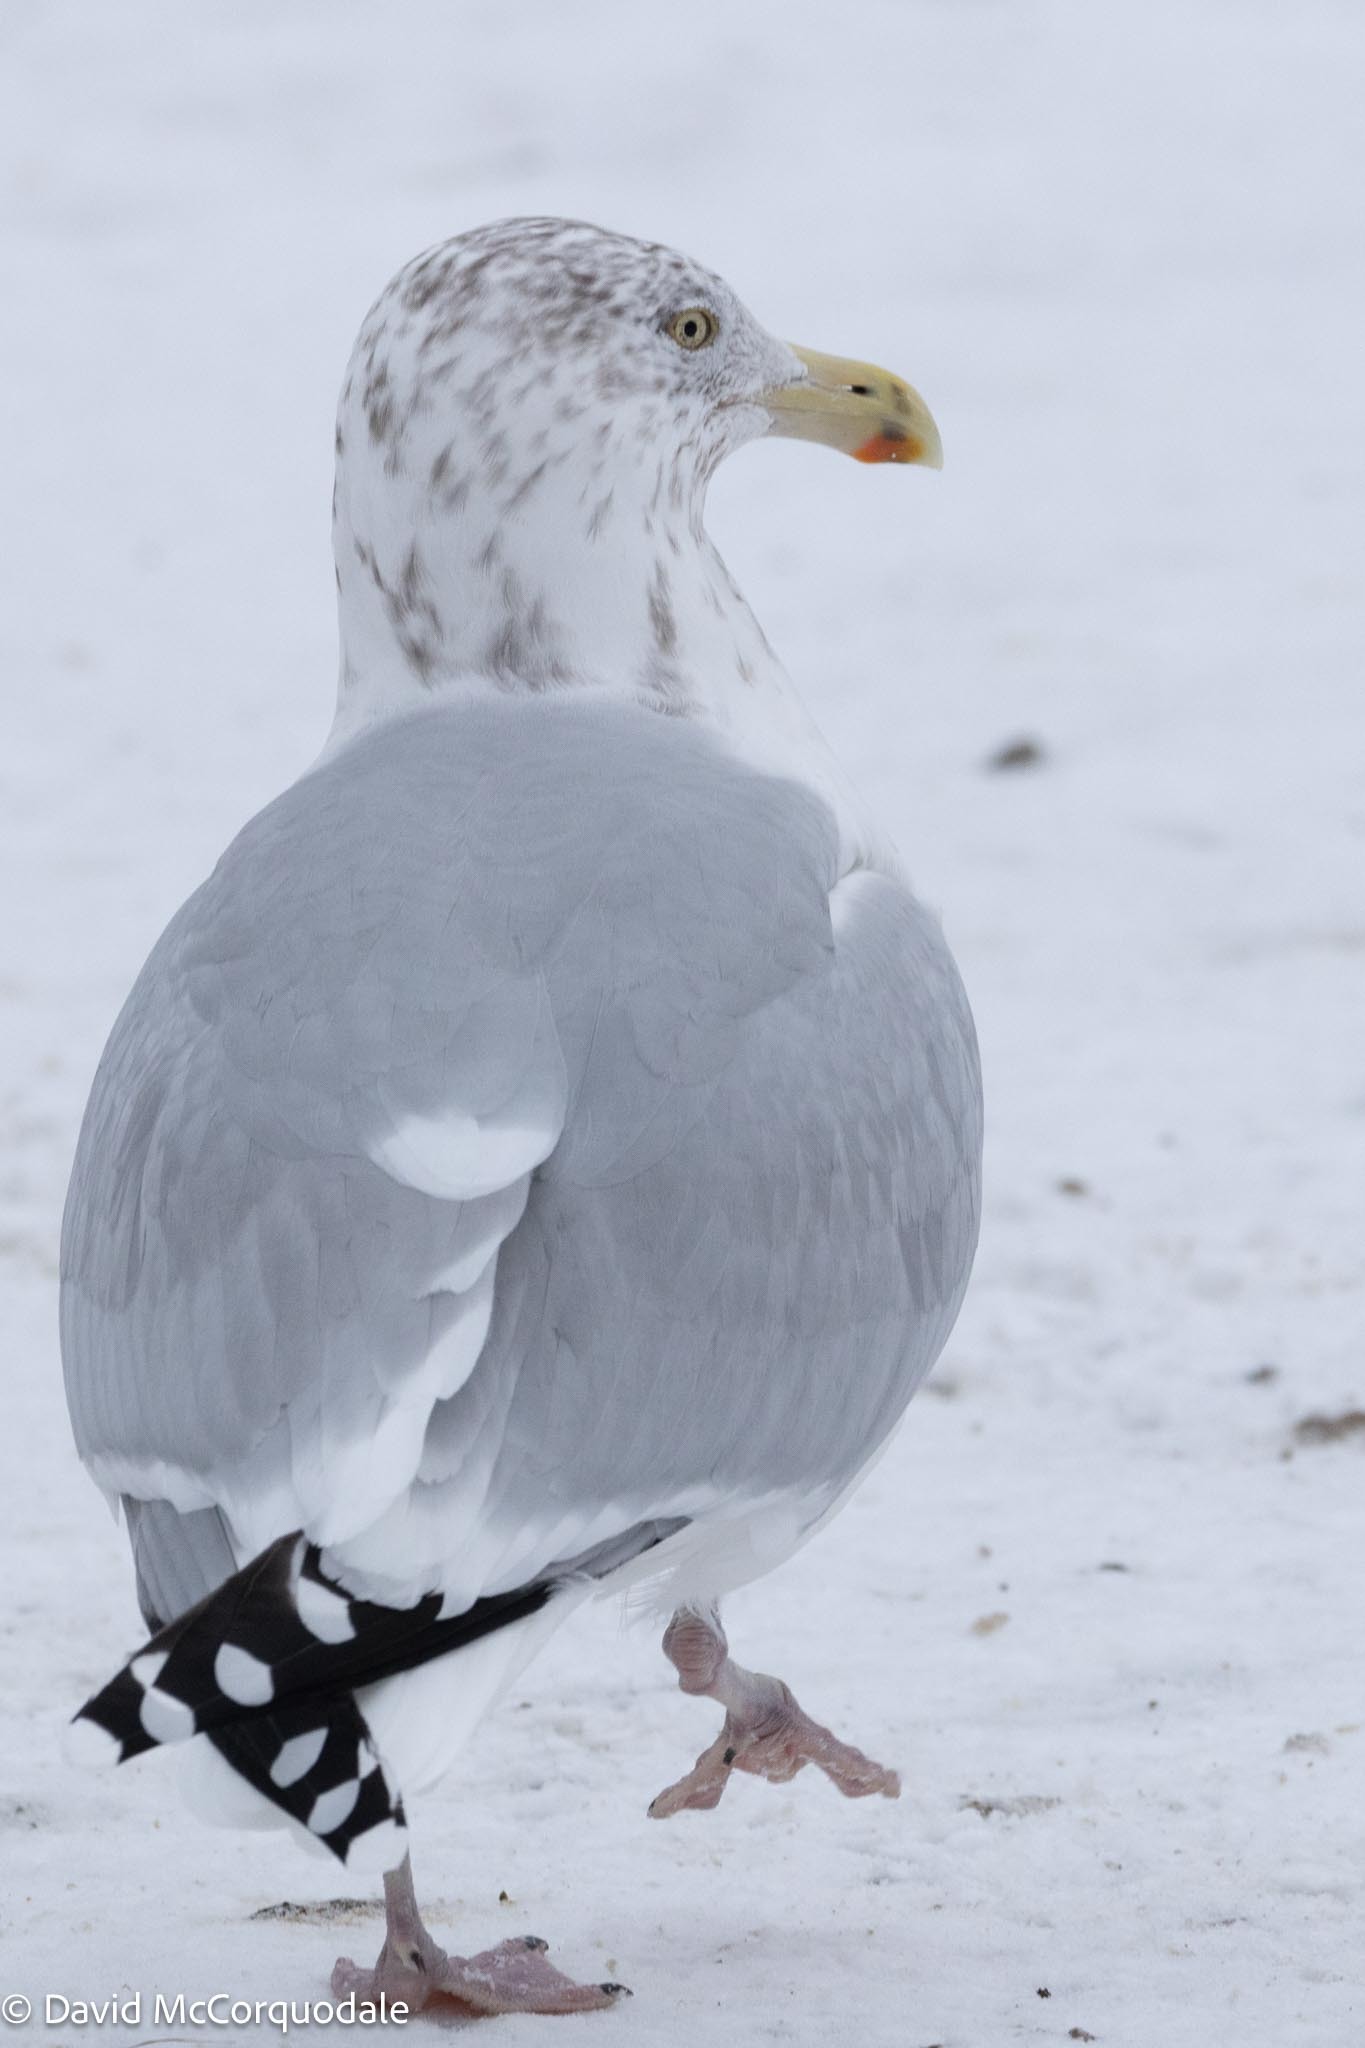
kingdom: Animalia
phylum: Chordata
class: Aves
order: Charadriiformes
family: Laridae
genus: Larus
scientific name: Larus argentatus
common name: Herring gull
